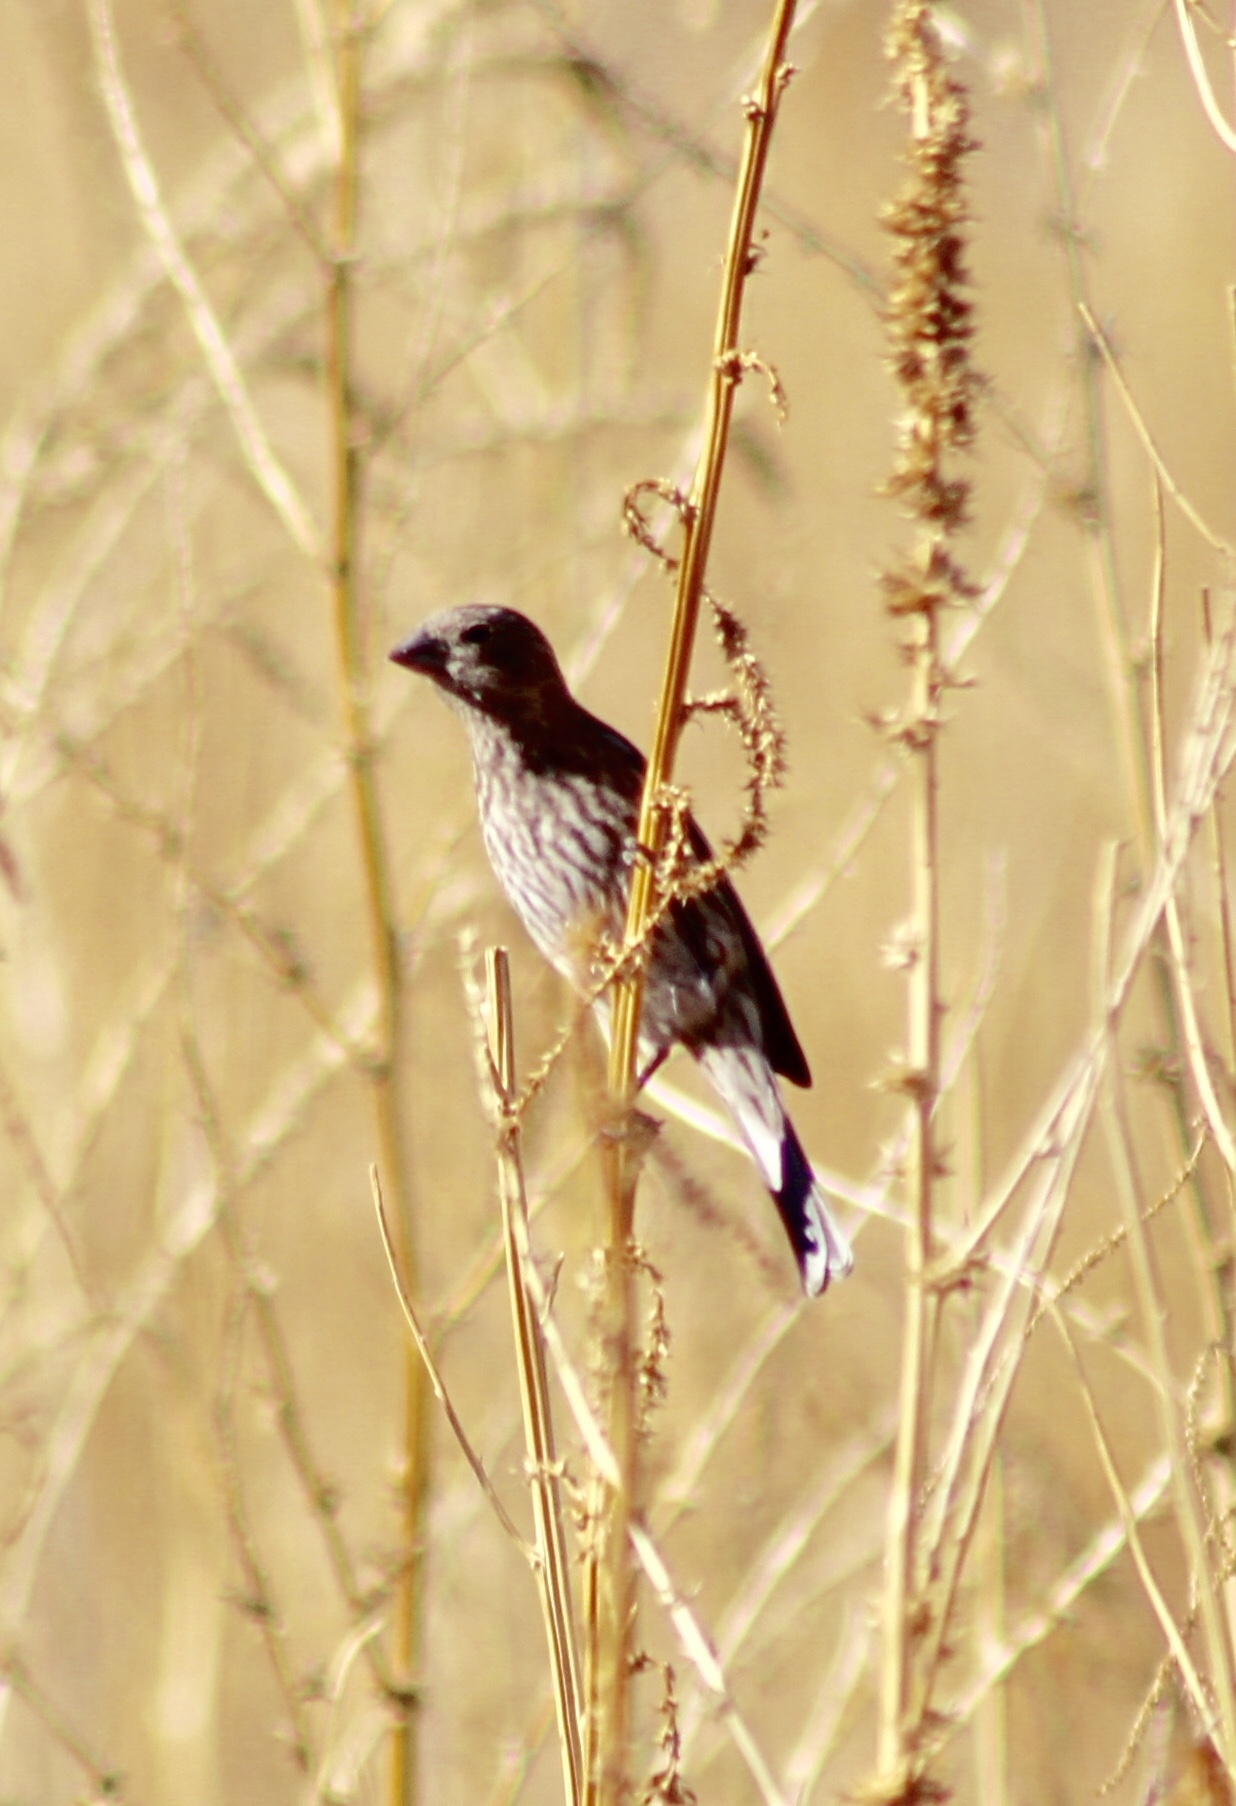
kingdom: Animalia
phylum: Chordata
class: Aves
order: Passeriformes
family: Fringillidae
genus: Haemorhous
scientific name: Haemorhous mexicanus
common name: House finch
